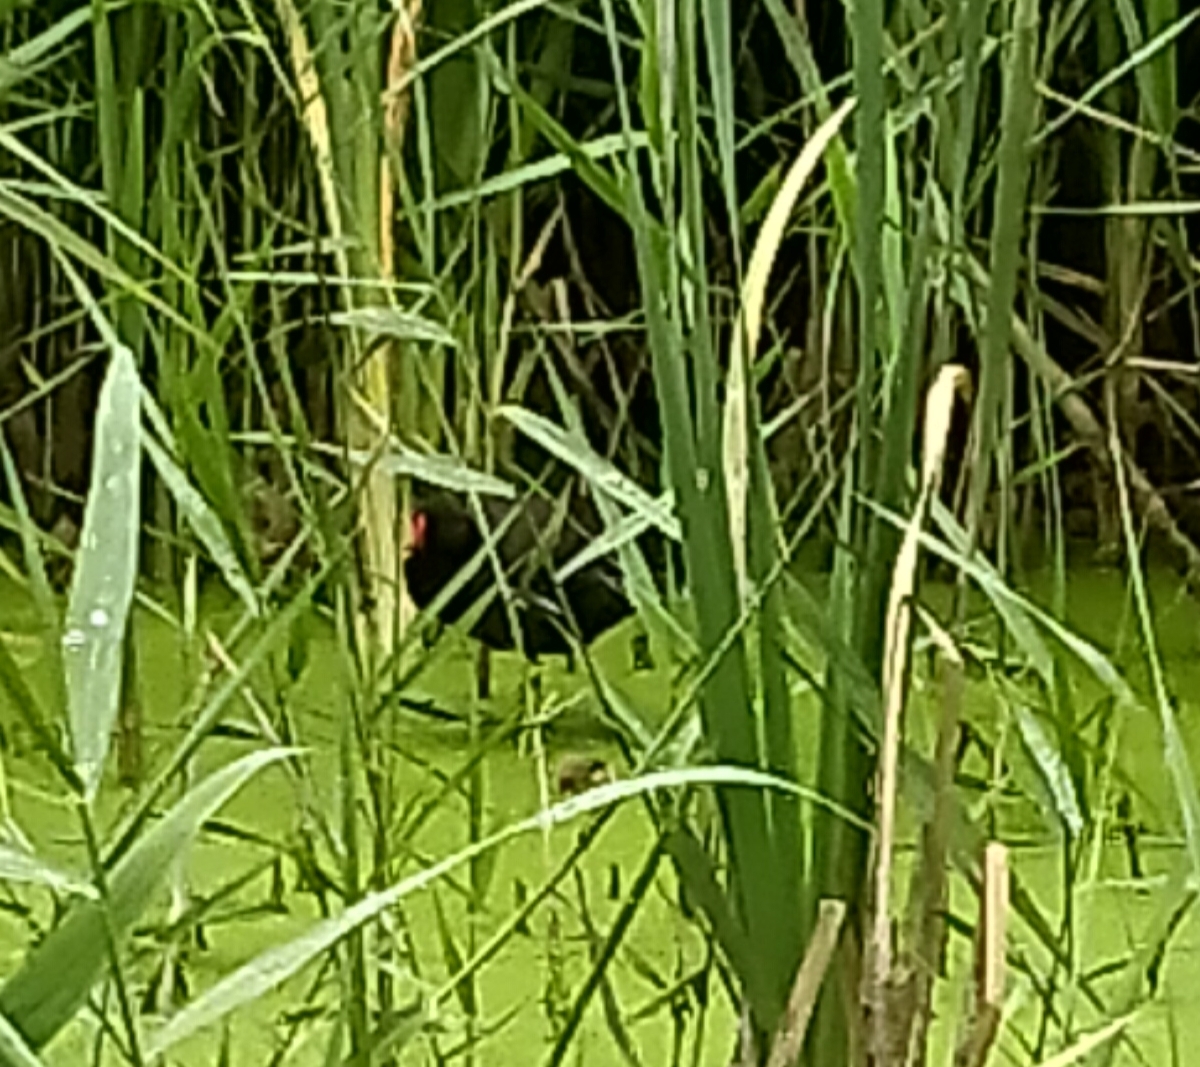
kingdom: Animalia
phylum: Chordata
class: Aves
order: Gruiformes
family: Rallidae
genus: Gallinula
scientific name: Gallinula chloropus
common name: Common moorhen
